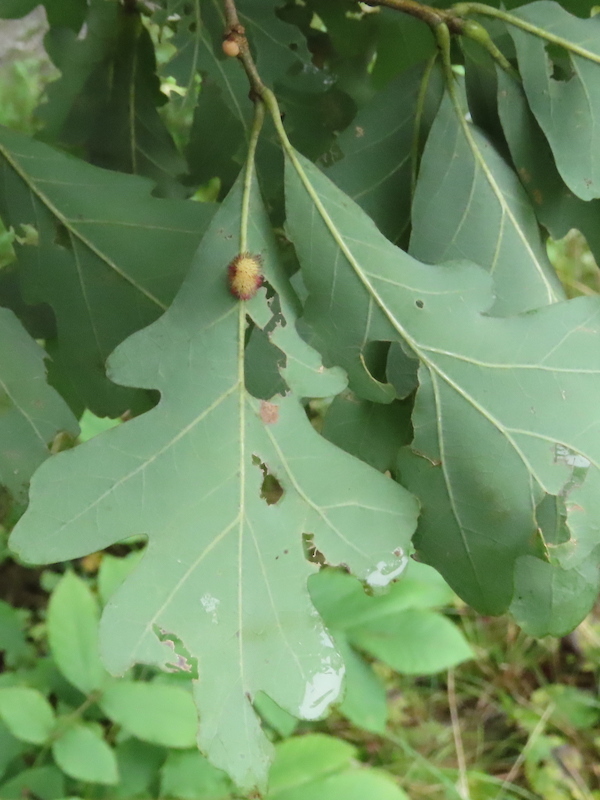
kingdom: Animalia
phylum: Arthropoda
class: Insecta
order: Hymenoptera
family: Cynipidae
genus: Acraspis
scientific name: Acraspis erinacei
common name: Hedgehog gall wasp
